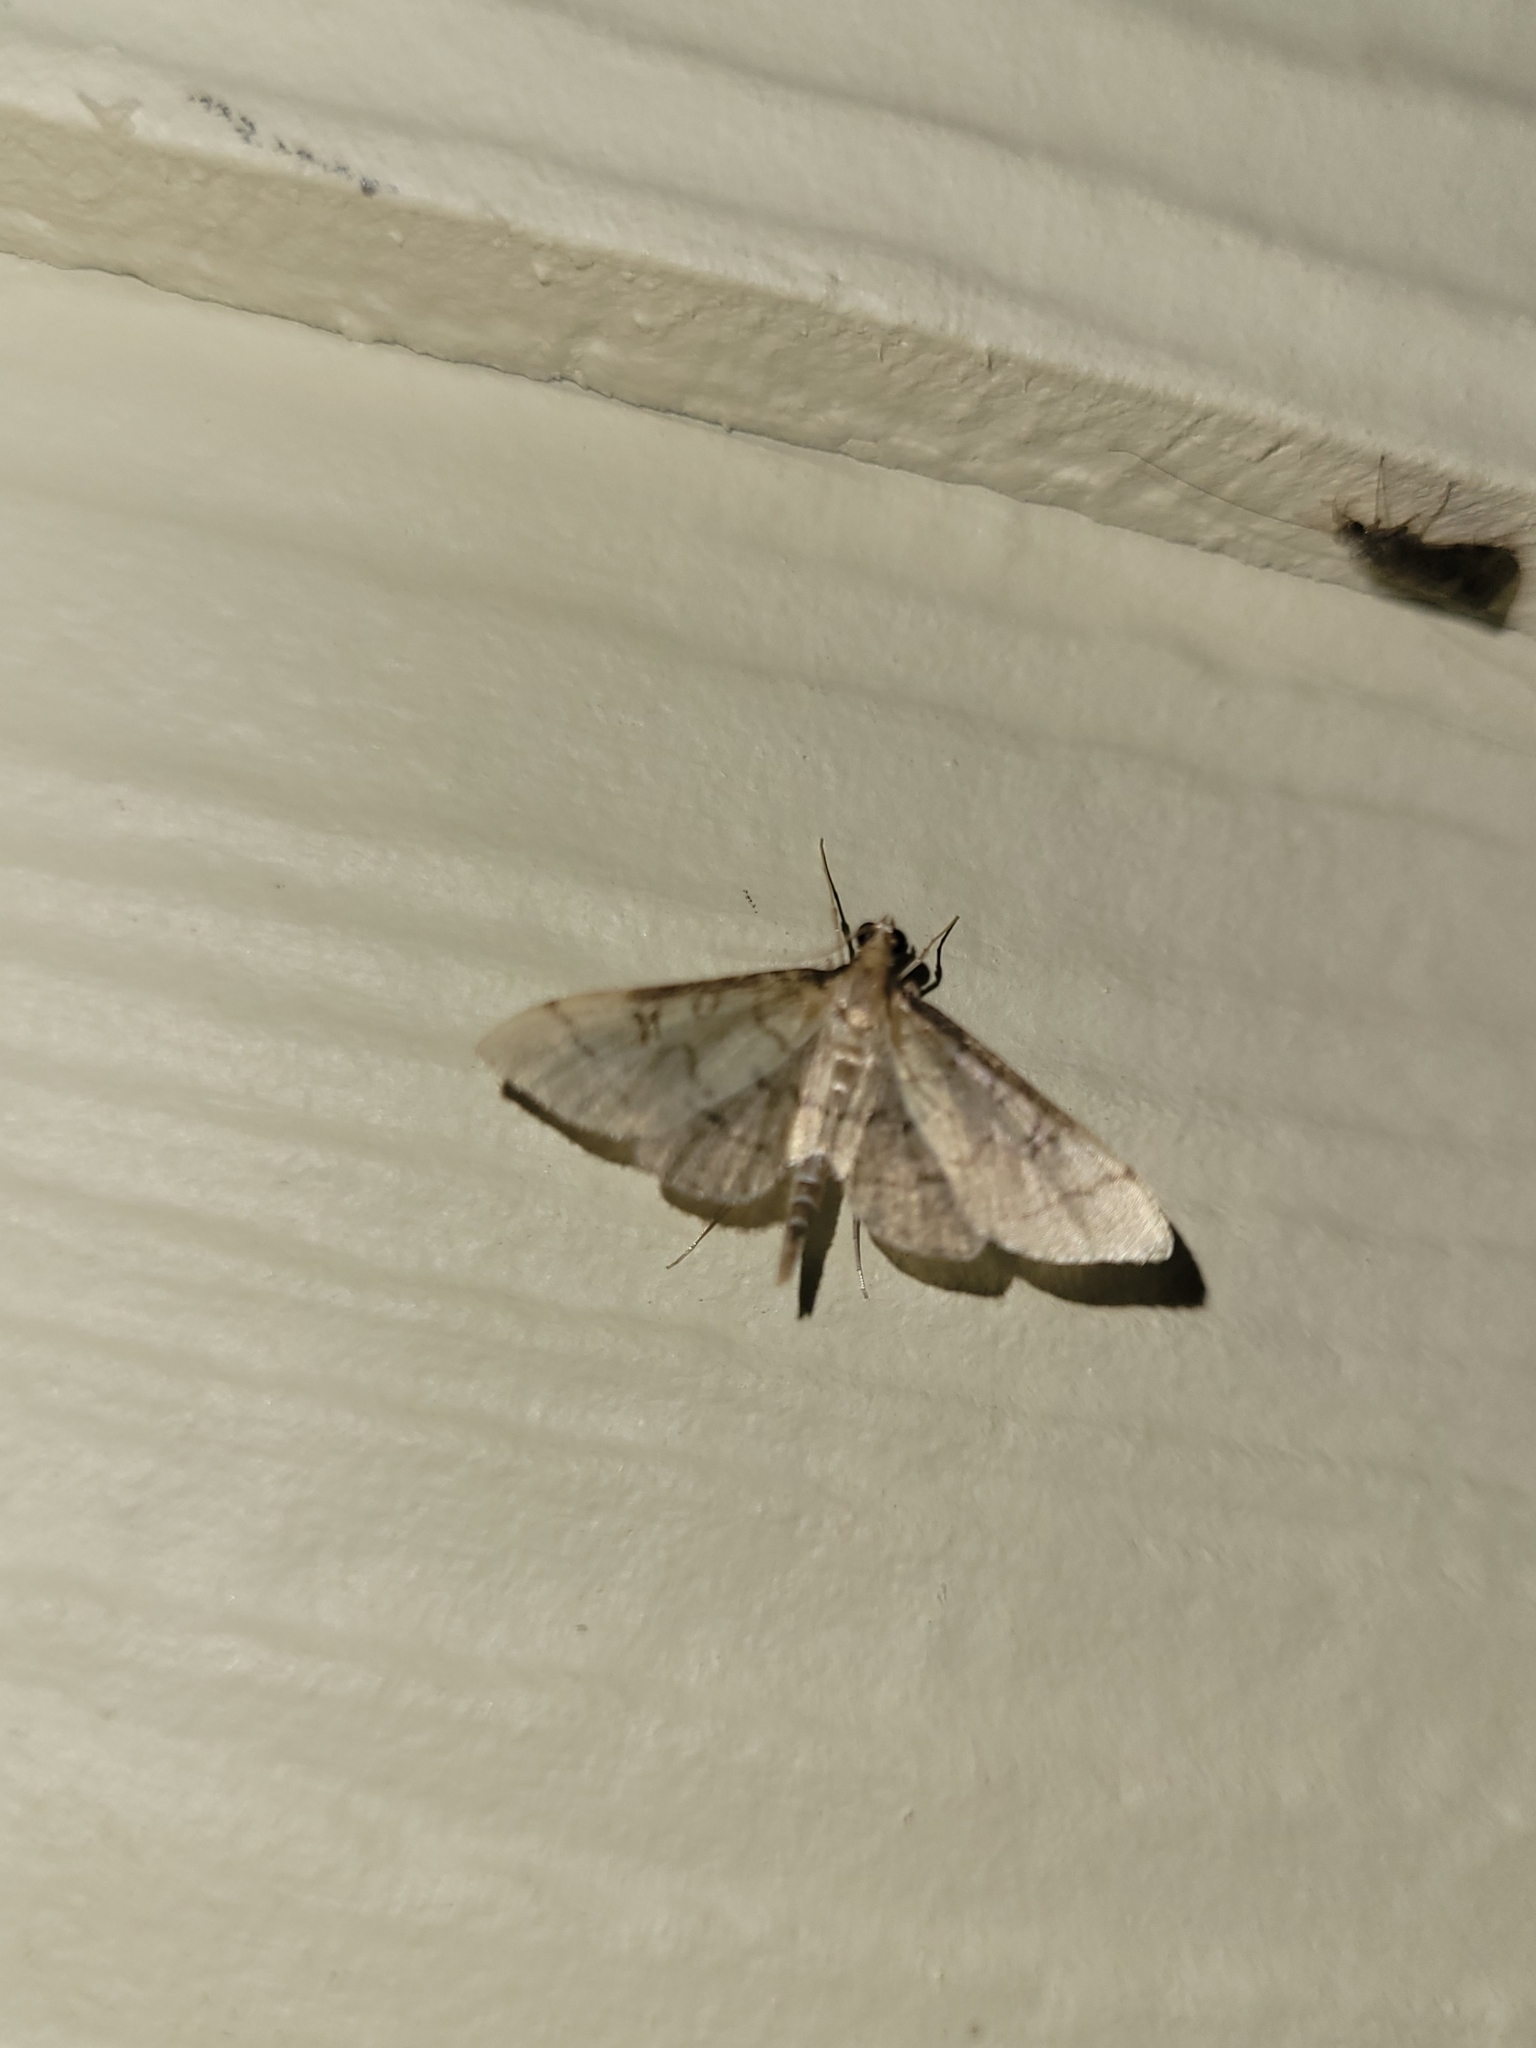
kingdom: Animalia
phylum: Arthropoda
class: Insecta
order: Lepidoptera
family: Crambidae
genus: Lamprosema
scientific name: Lamprosema Blepharomastix ranalis
